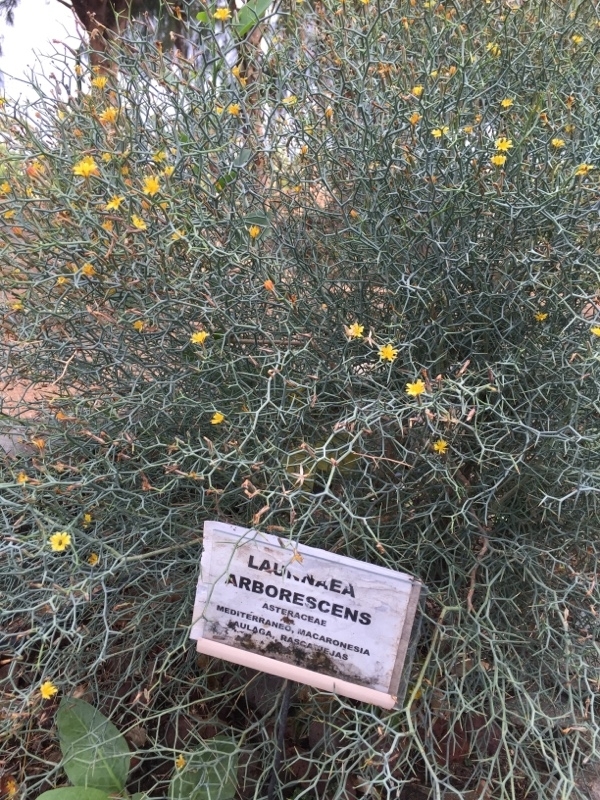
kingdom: Plantae
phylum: Tracheophyta
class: Magnoliopsida
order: Asterales
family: Asteraceae
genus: Launaea
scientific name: Launaea arborescens
